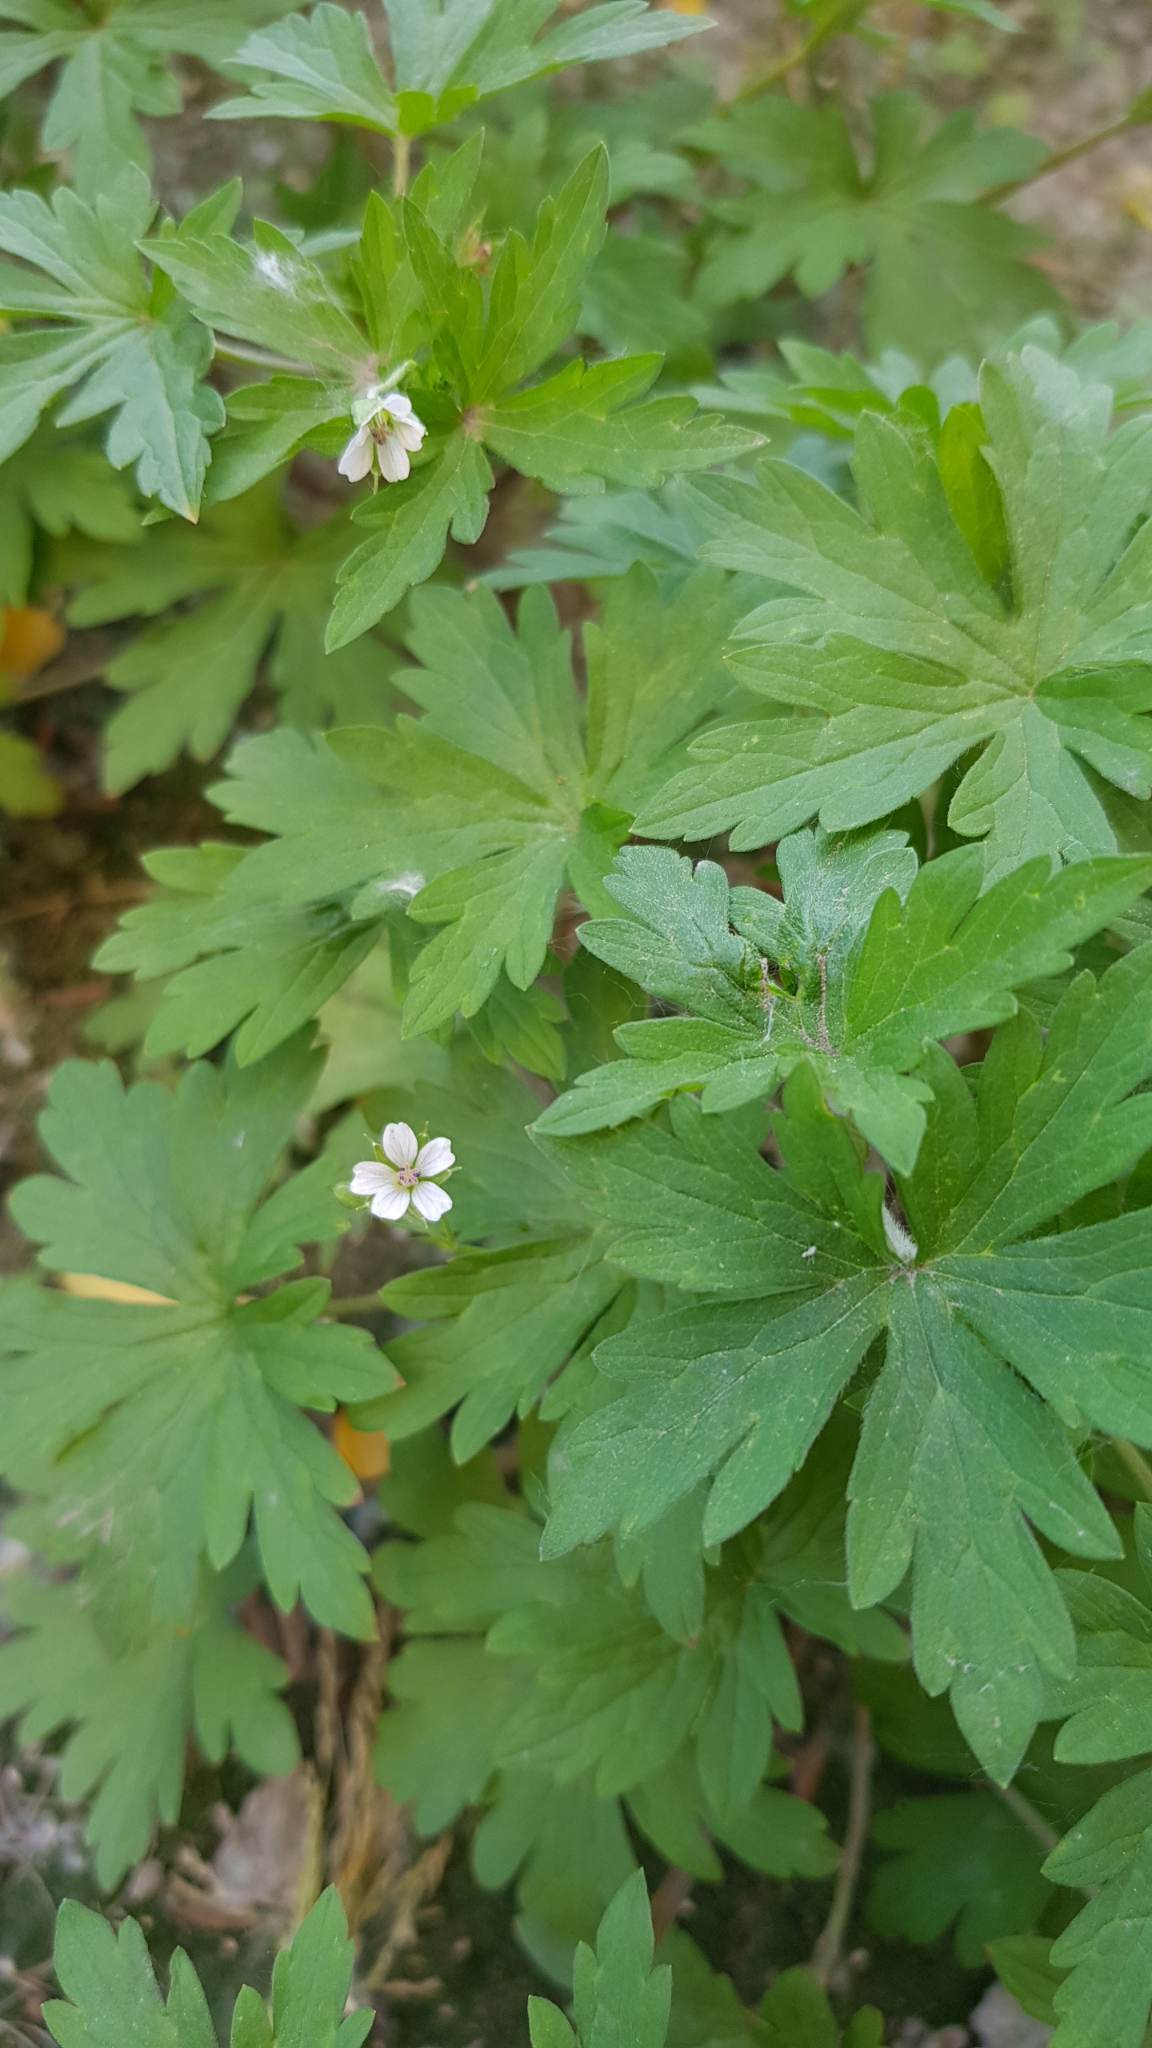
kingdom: Plantae
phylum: Tracheophyta
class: Magnoliopsida
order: Geraniales
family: Geraniaceae
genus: Geranium
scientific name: Geranium sibiricum
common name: Siberian crane's-bill
